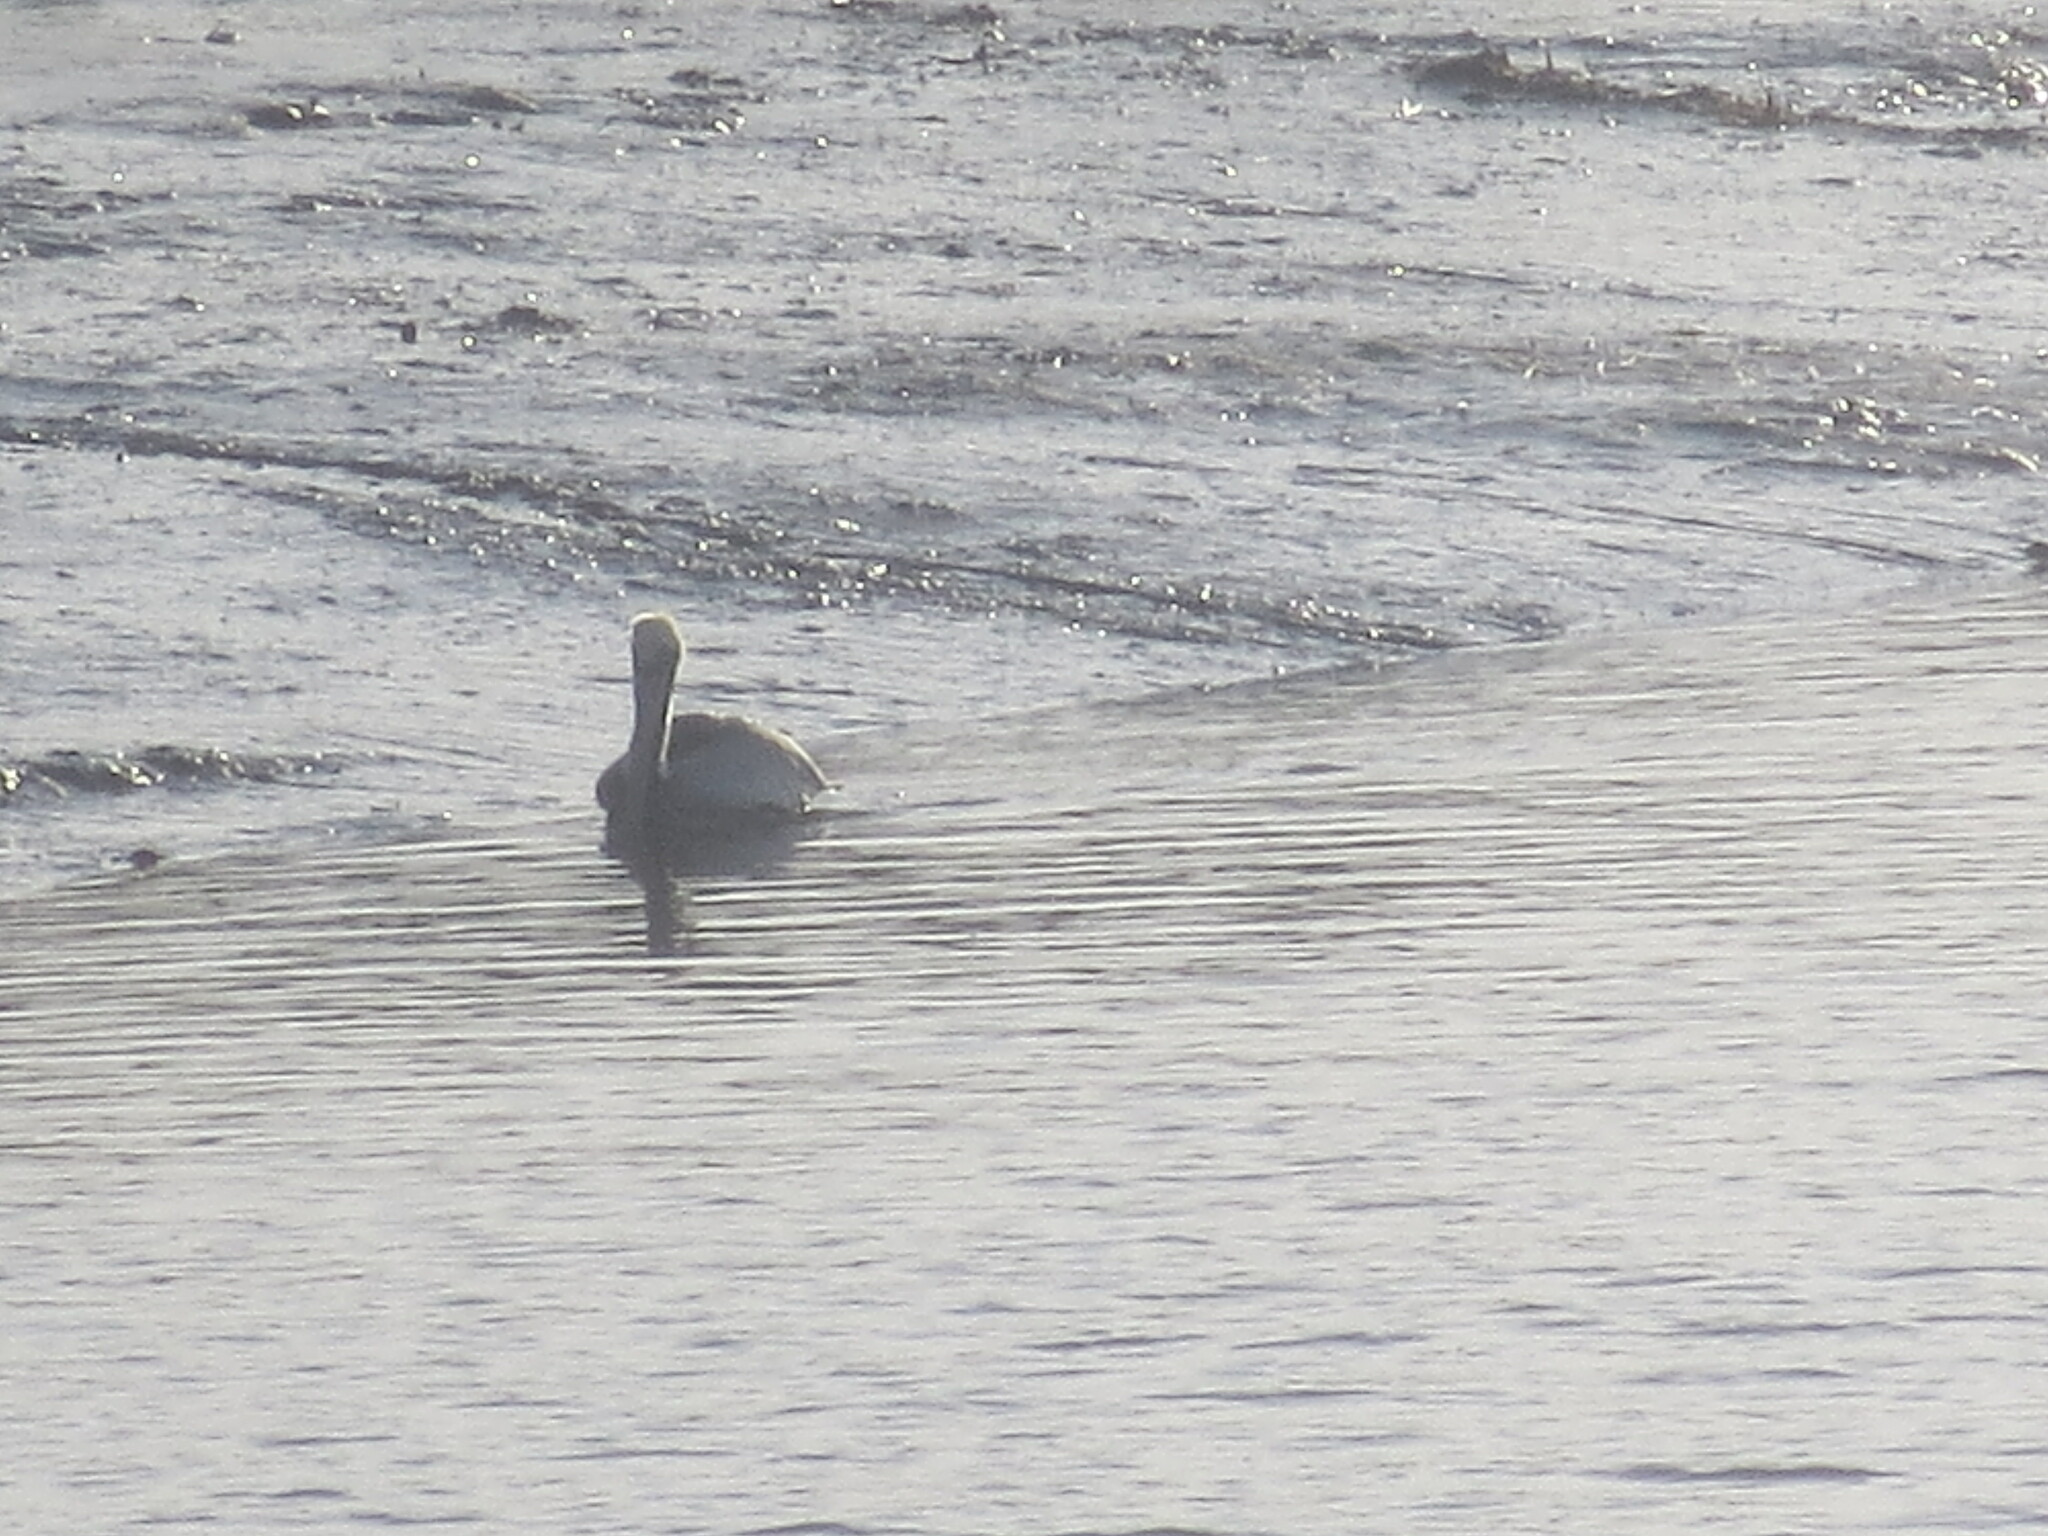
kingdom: Animalia
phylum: Chordata
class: Aves
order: Pelecaniformes
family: Pelecanidae
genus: Pelecanus
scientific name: Pelecanus occidentalis
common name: Brown pelican
